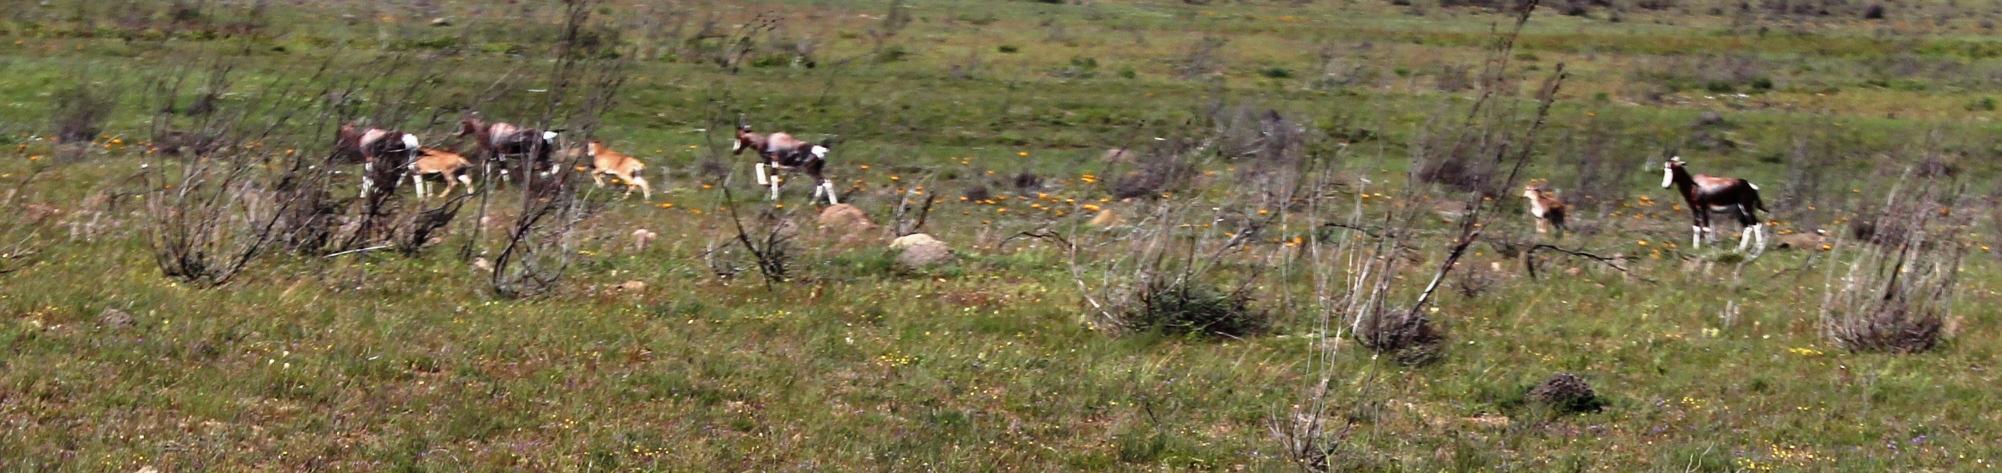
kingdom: Animalia
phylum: Chordata
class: Mammalia
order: Artiodactyla
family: Bovidae
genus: Damaliscus
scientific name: Damaliscus pygargus
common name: Bontebok
